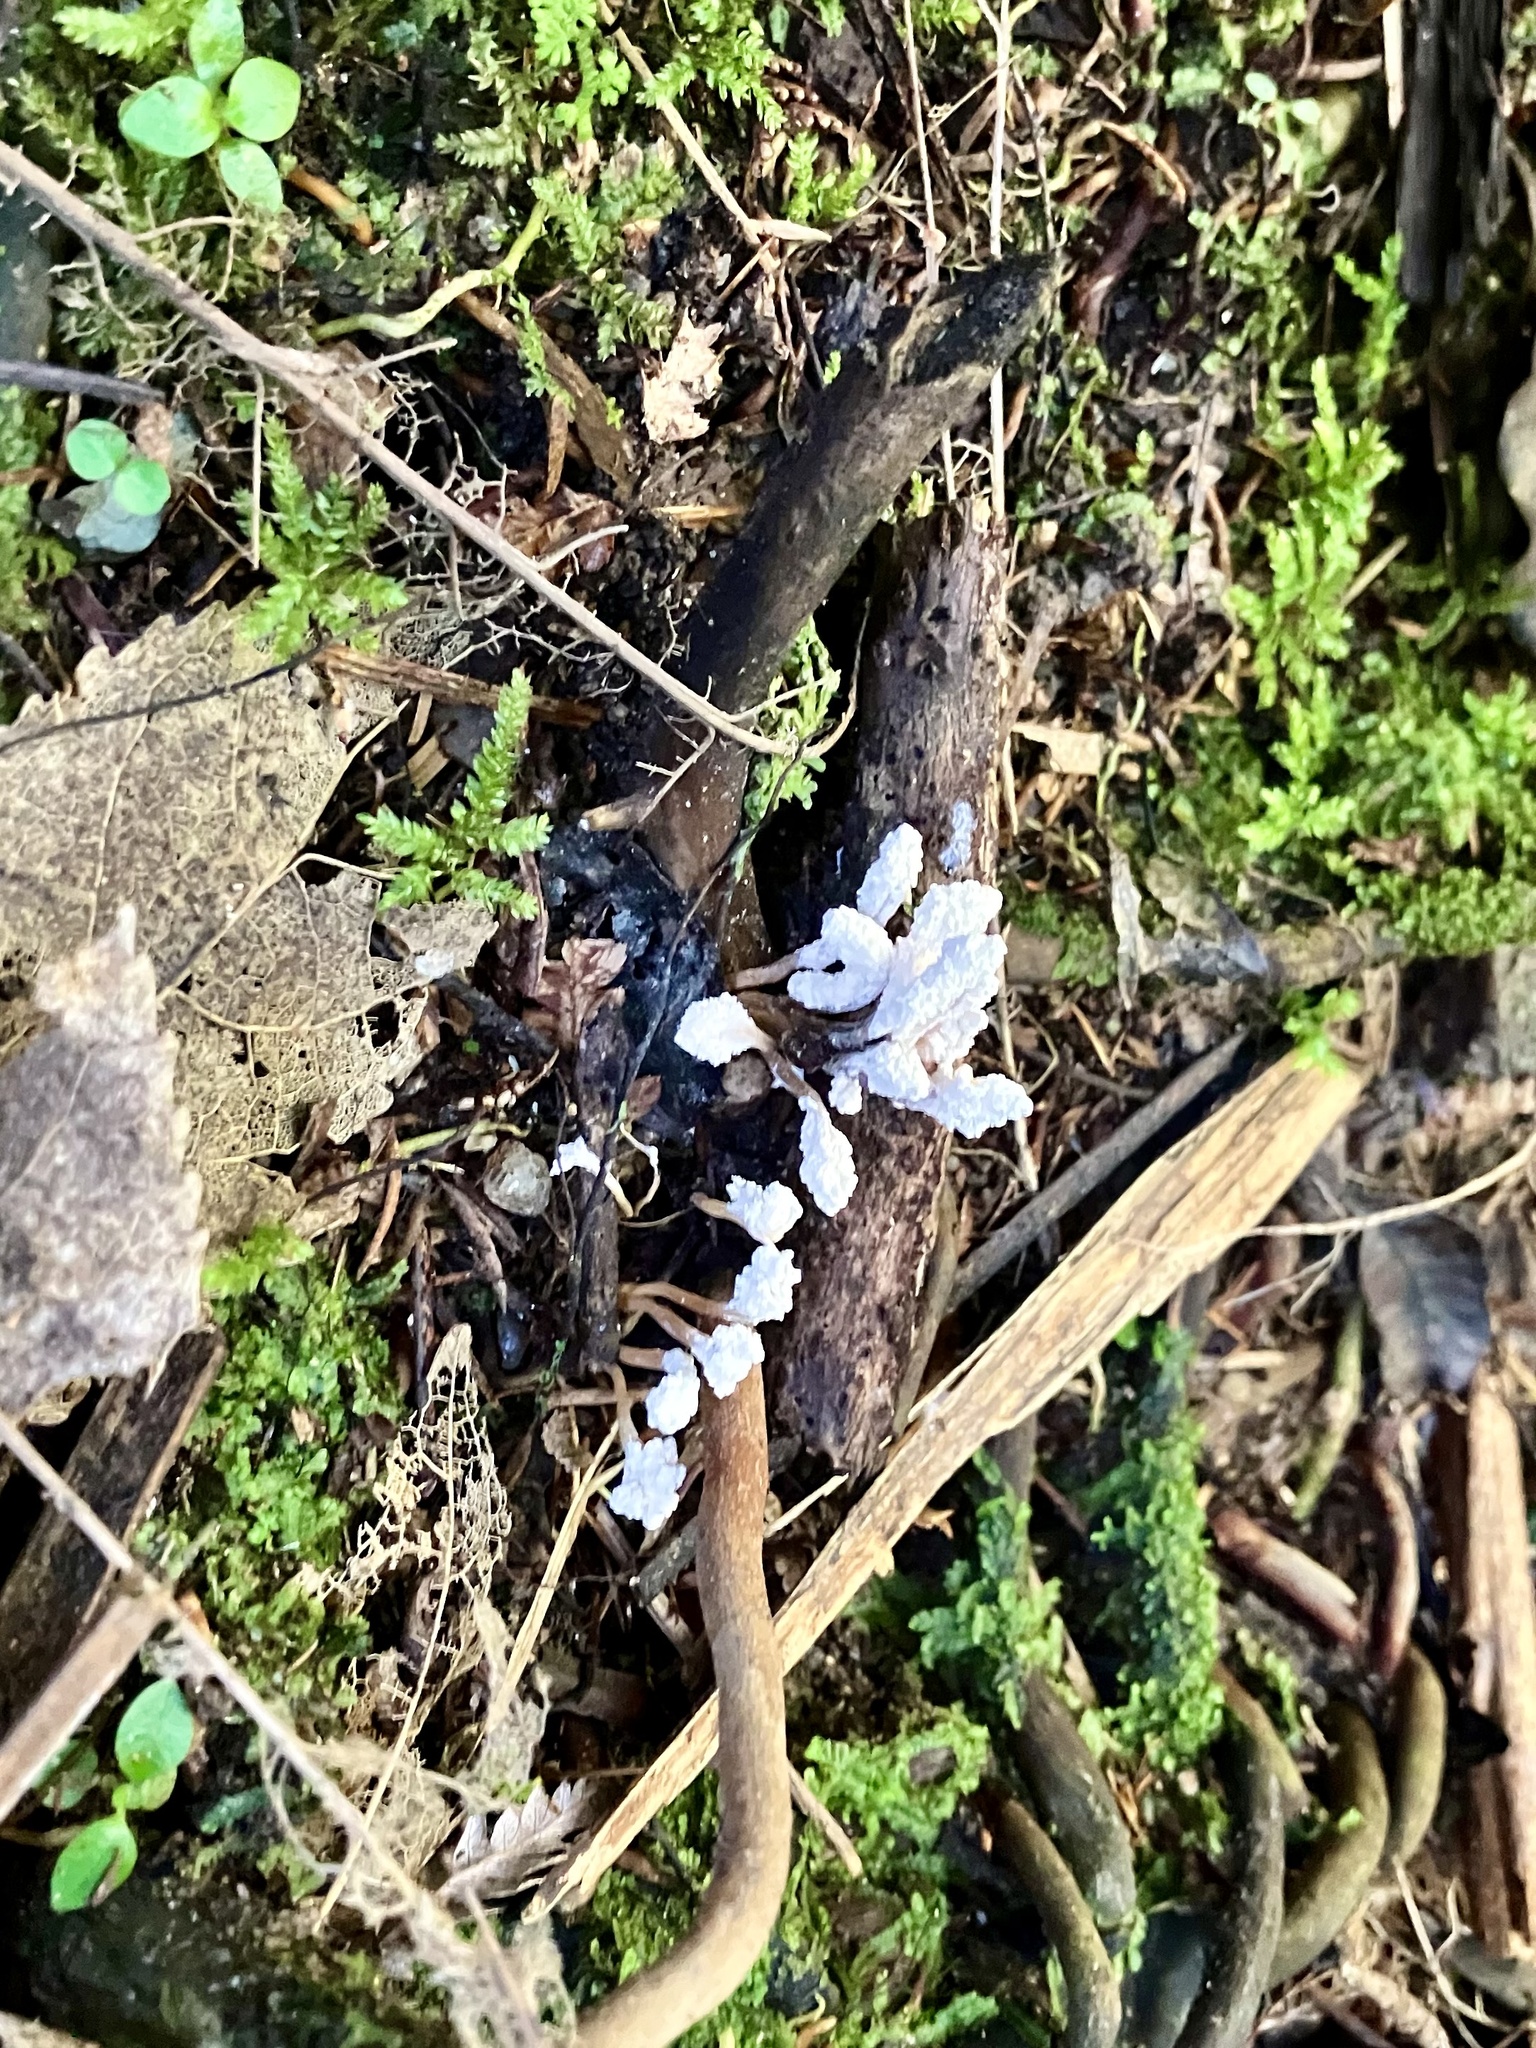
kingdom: Fungi
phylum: Ascomycota
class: Sordariomycetes
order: Hypocreales
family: Cordycipitaceae
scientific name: Cordycipitaceae
